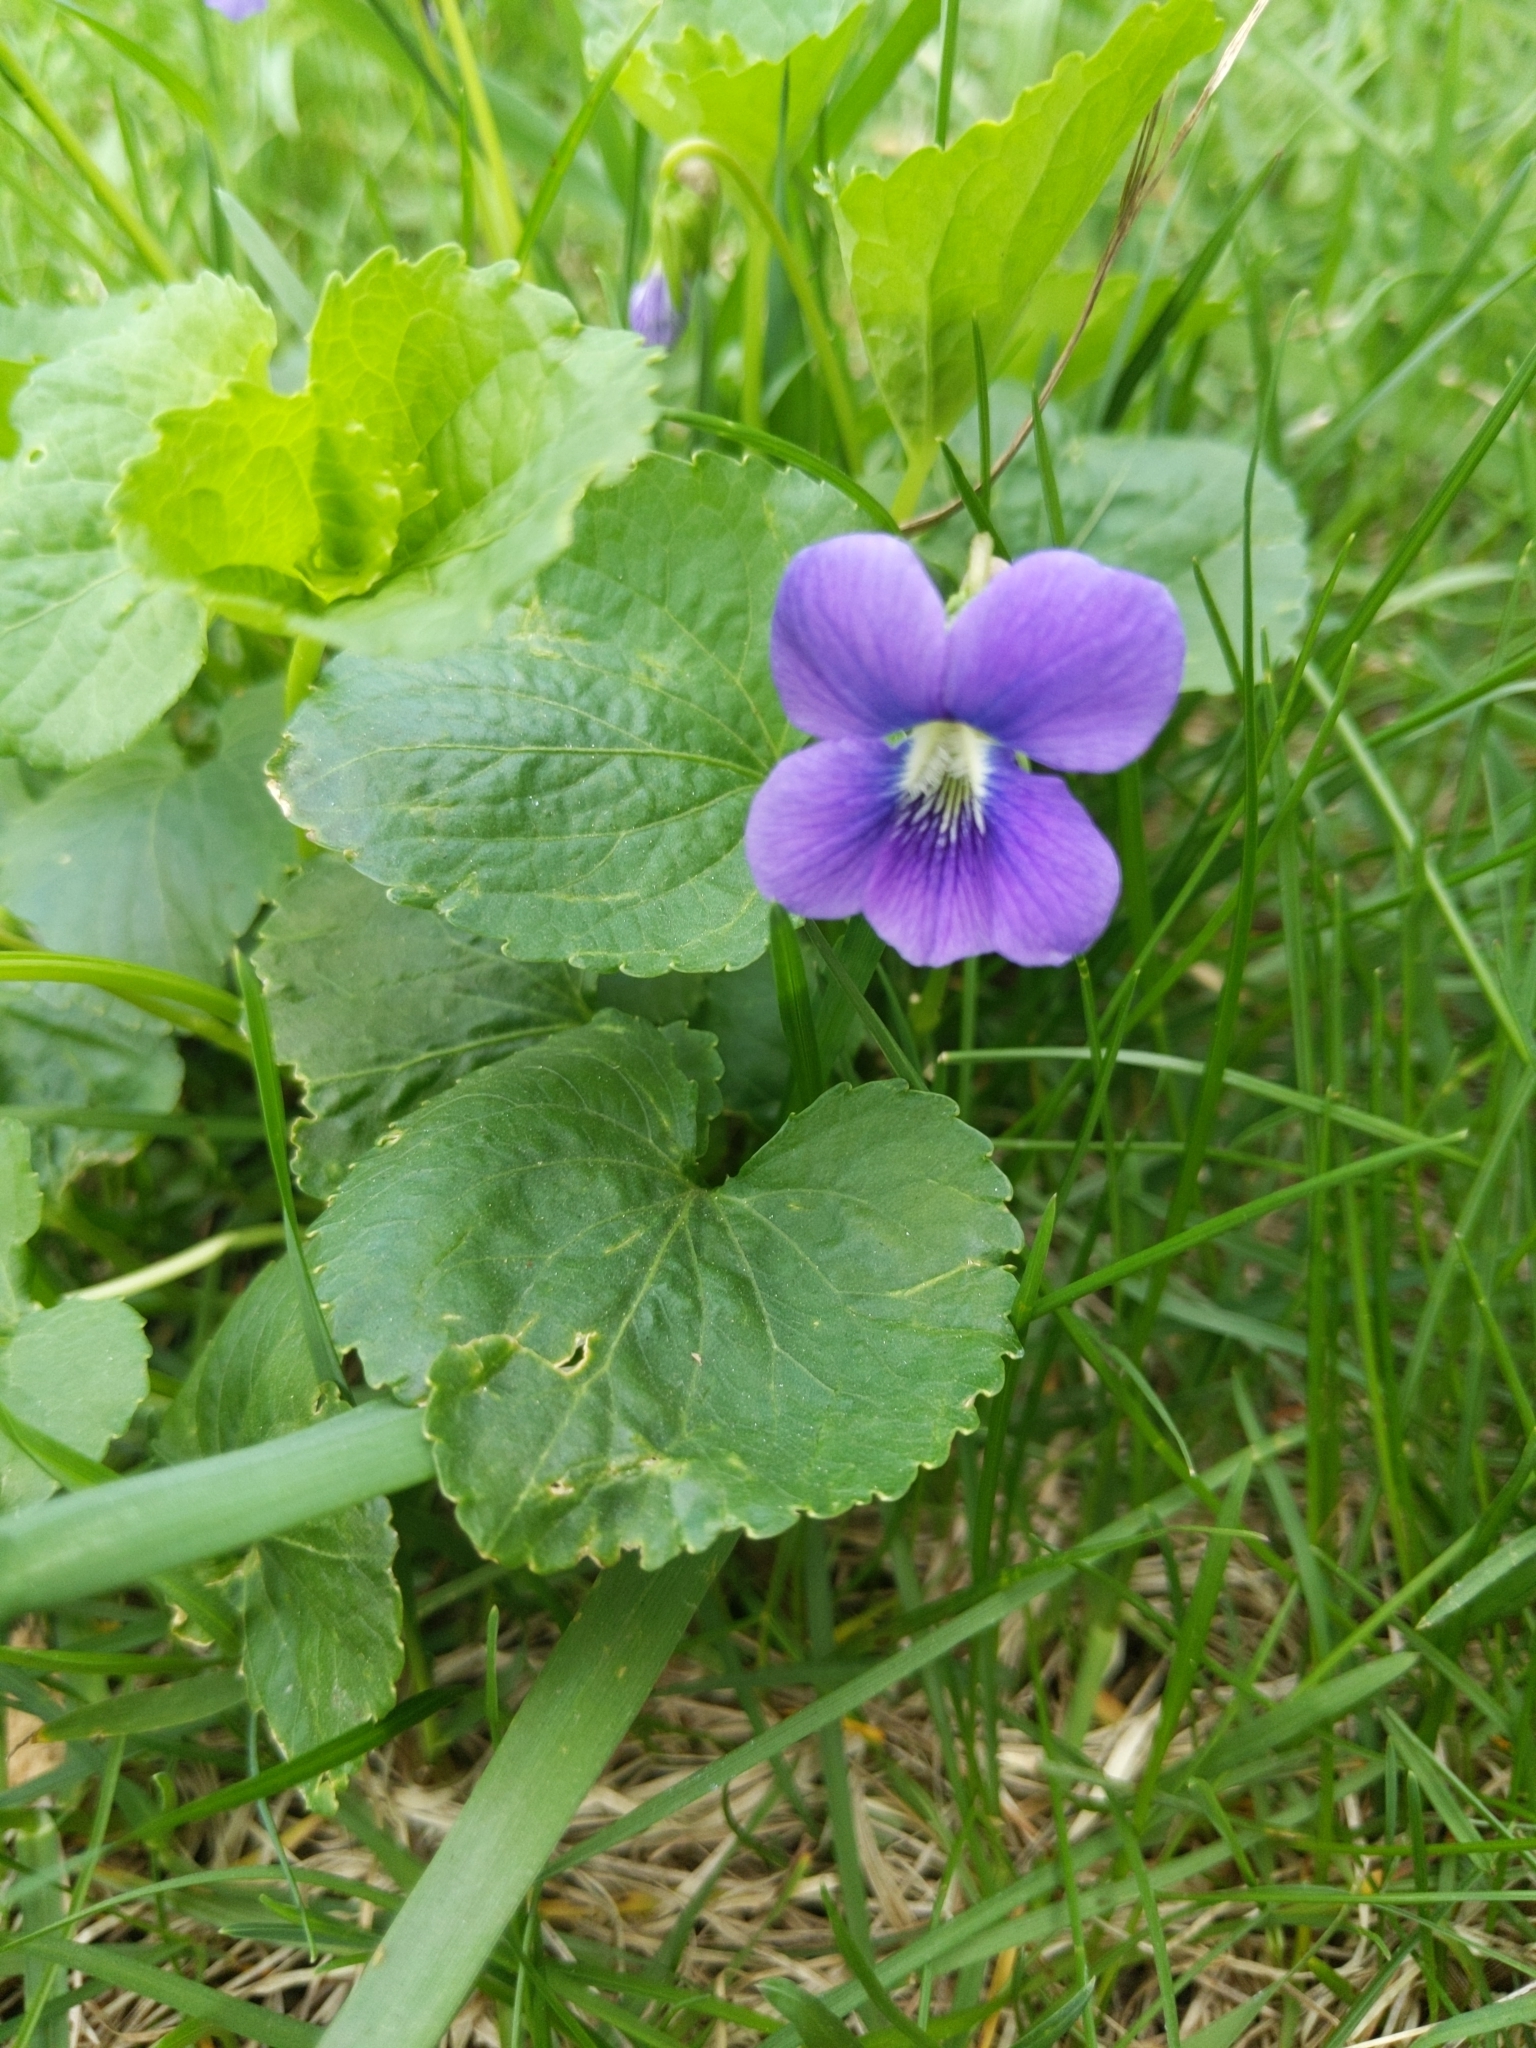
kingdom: Plantae
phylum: Tracheophyta
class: Magnoliopsida
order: Malpighiales
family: Violaceae
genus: Viola
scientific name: Viola sororia
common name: Dooryard violet
